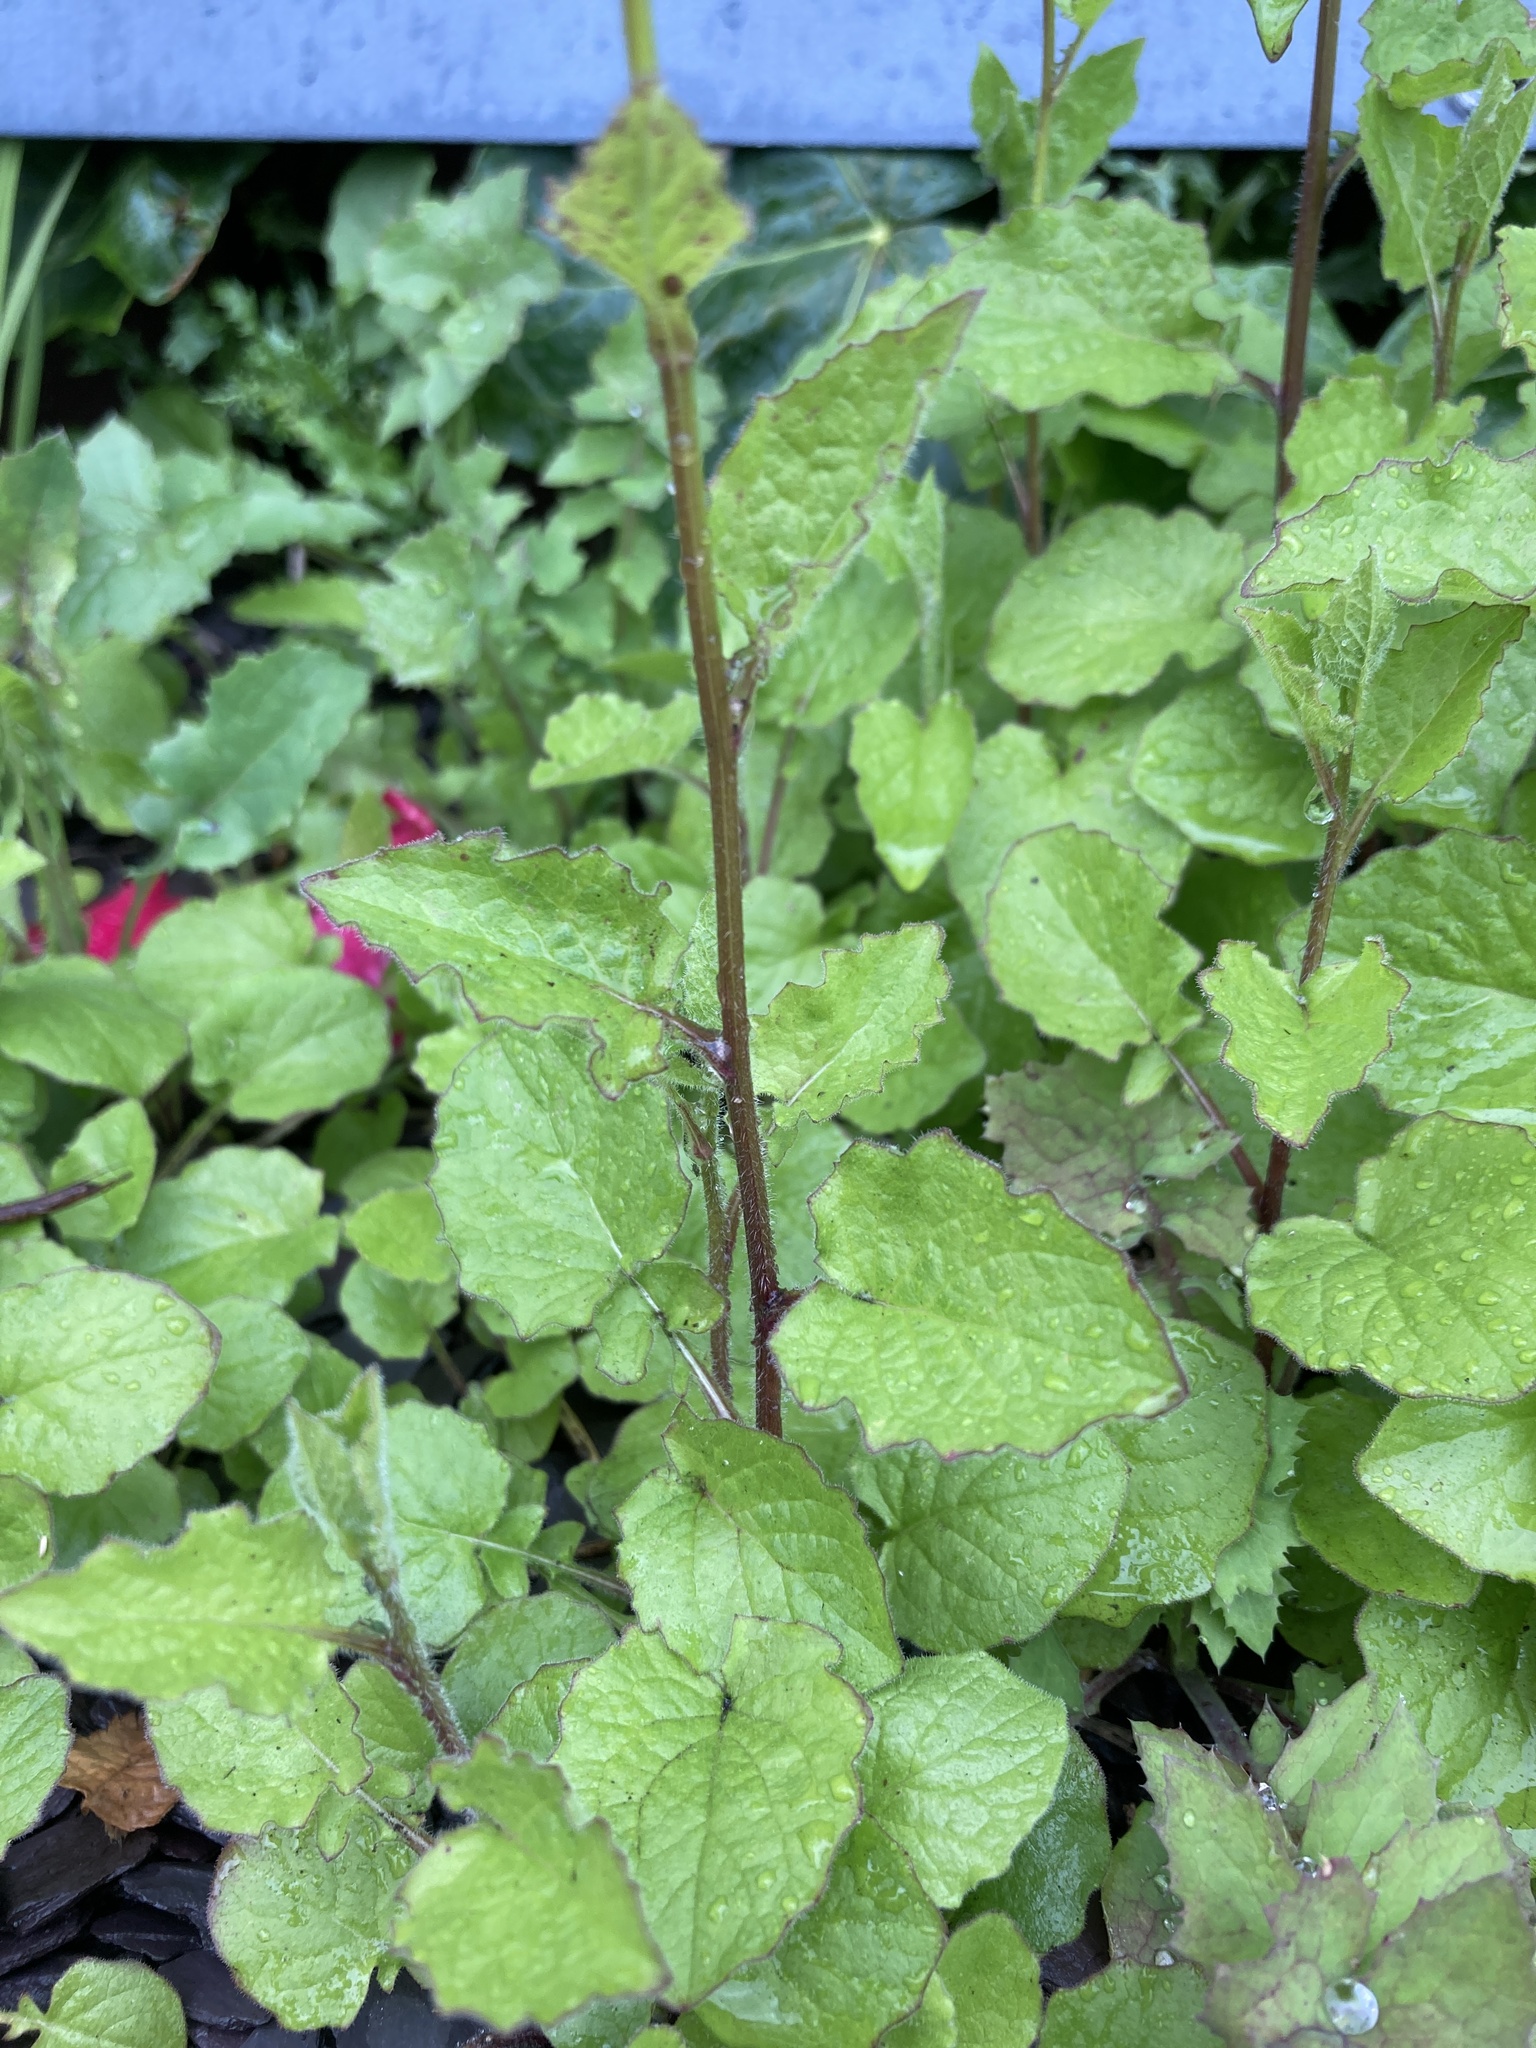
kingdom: Plantae
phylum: Tracheophyta
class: Magnoliopsida
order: Asterales
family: Asteraceae
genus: Lapsana
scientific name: Lapsana communis
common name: Nipplewort
